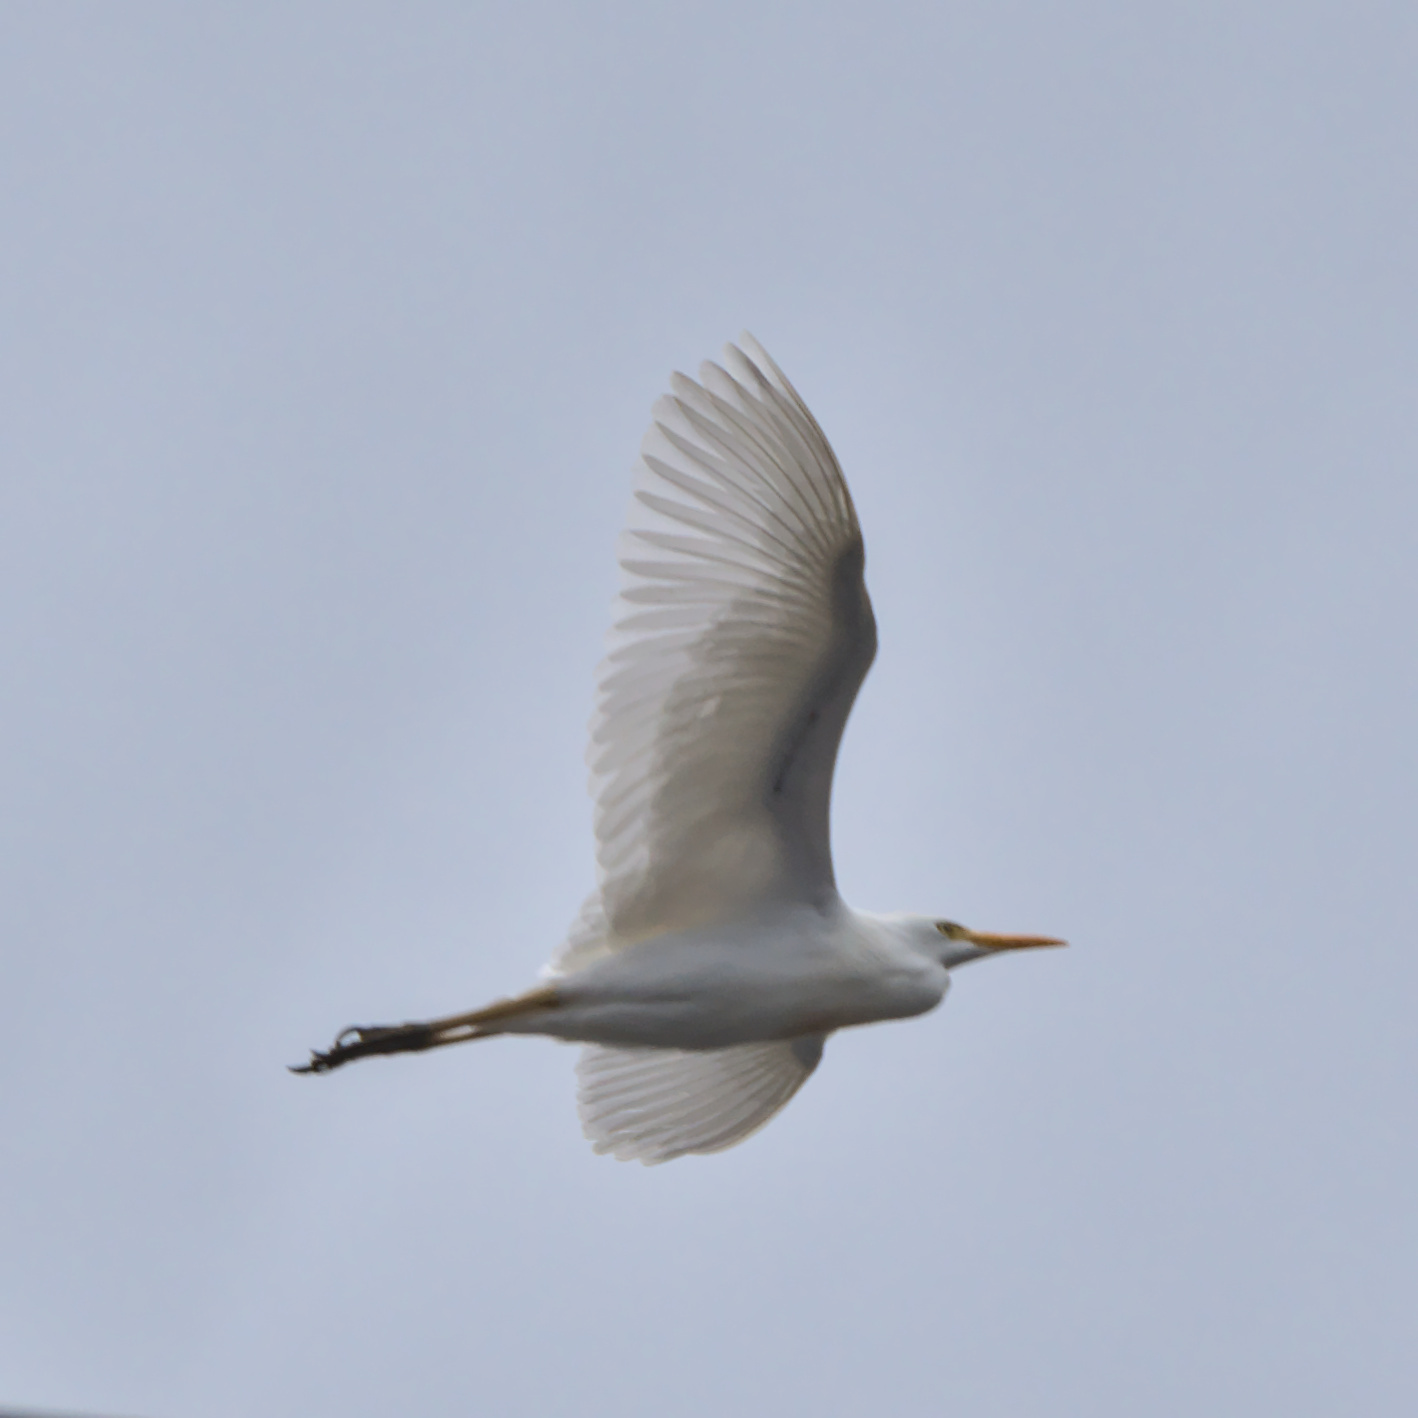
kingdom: Animalia
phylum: Chordata
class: Aves
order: Pelecaniformes
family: Ardeidae
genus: Bubulcus
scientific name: Bubulcus ibis
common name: Cattle egret
